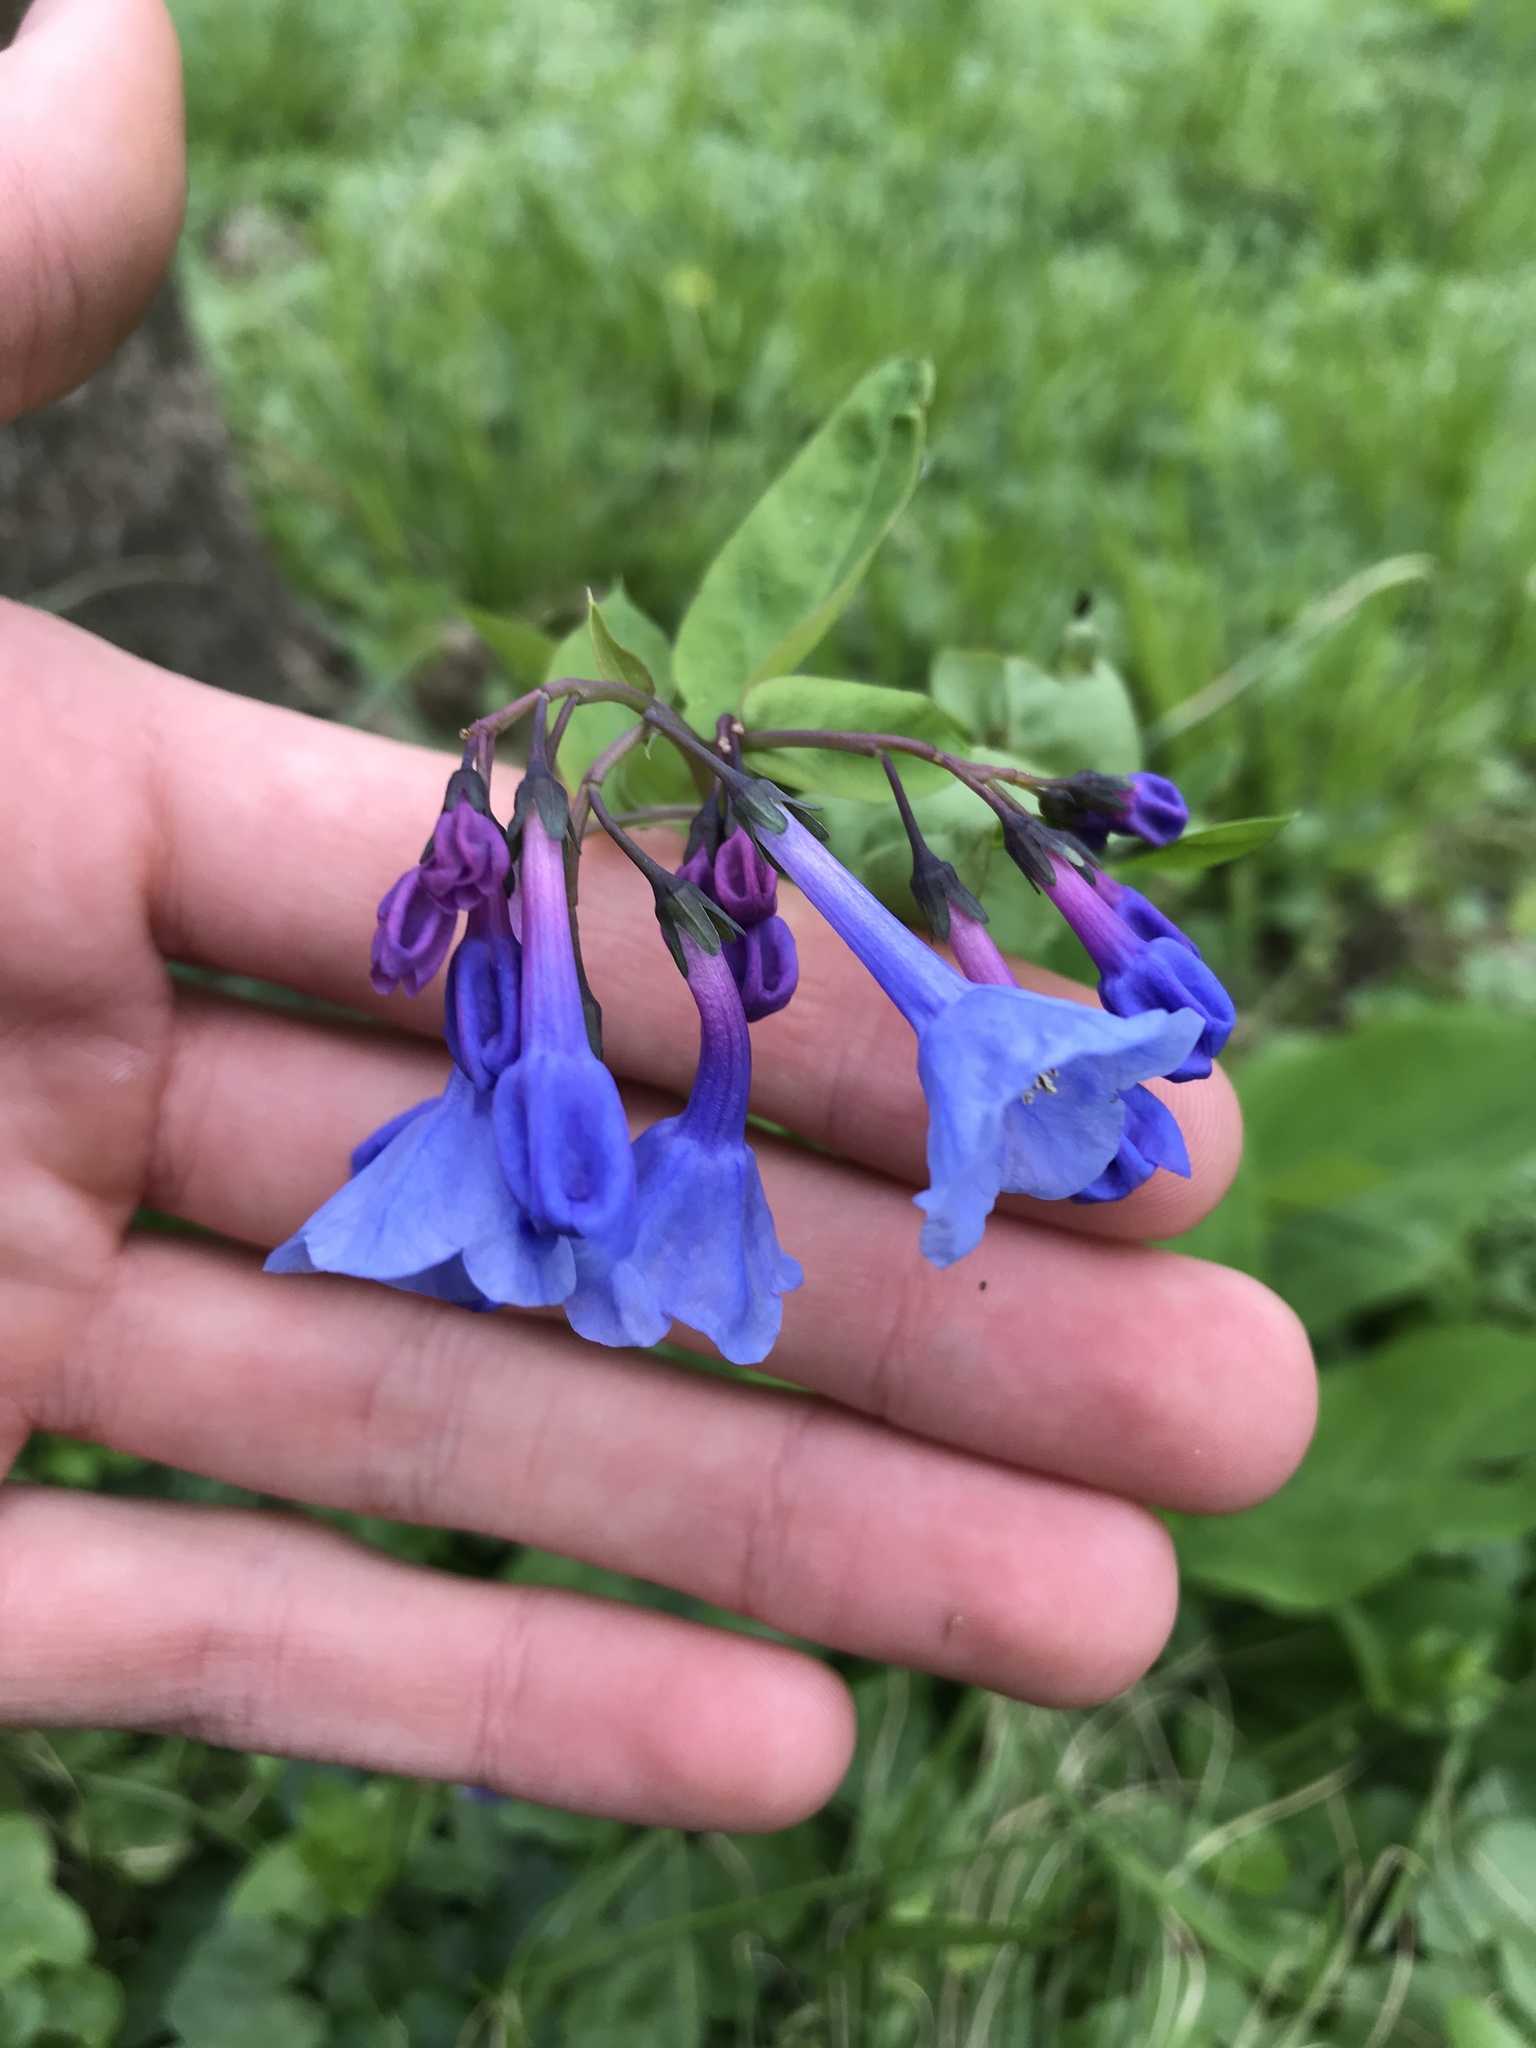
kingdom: Plantae
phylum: Tracheophyta
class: Magnoliopsida
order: Boraginales
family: Boraginaceae
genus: Mertensia
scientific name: Mertensia virginica
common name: Virginia bluebells
